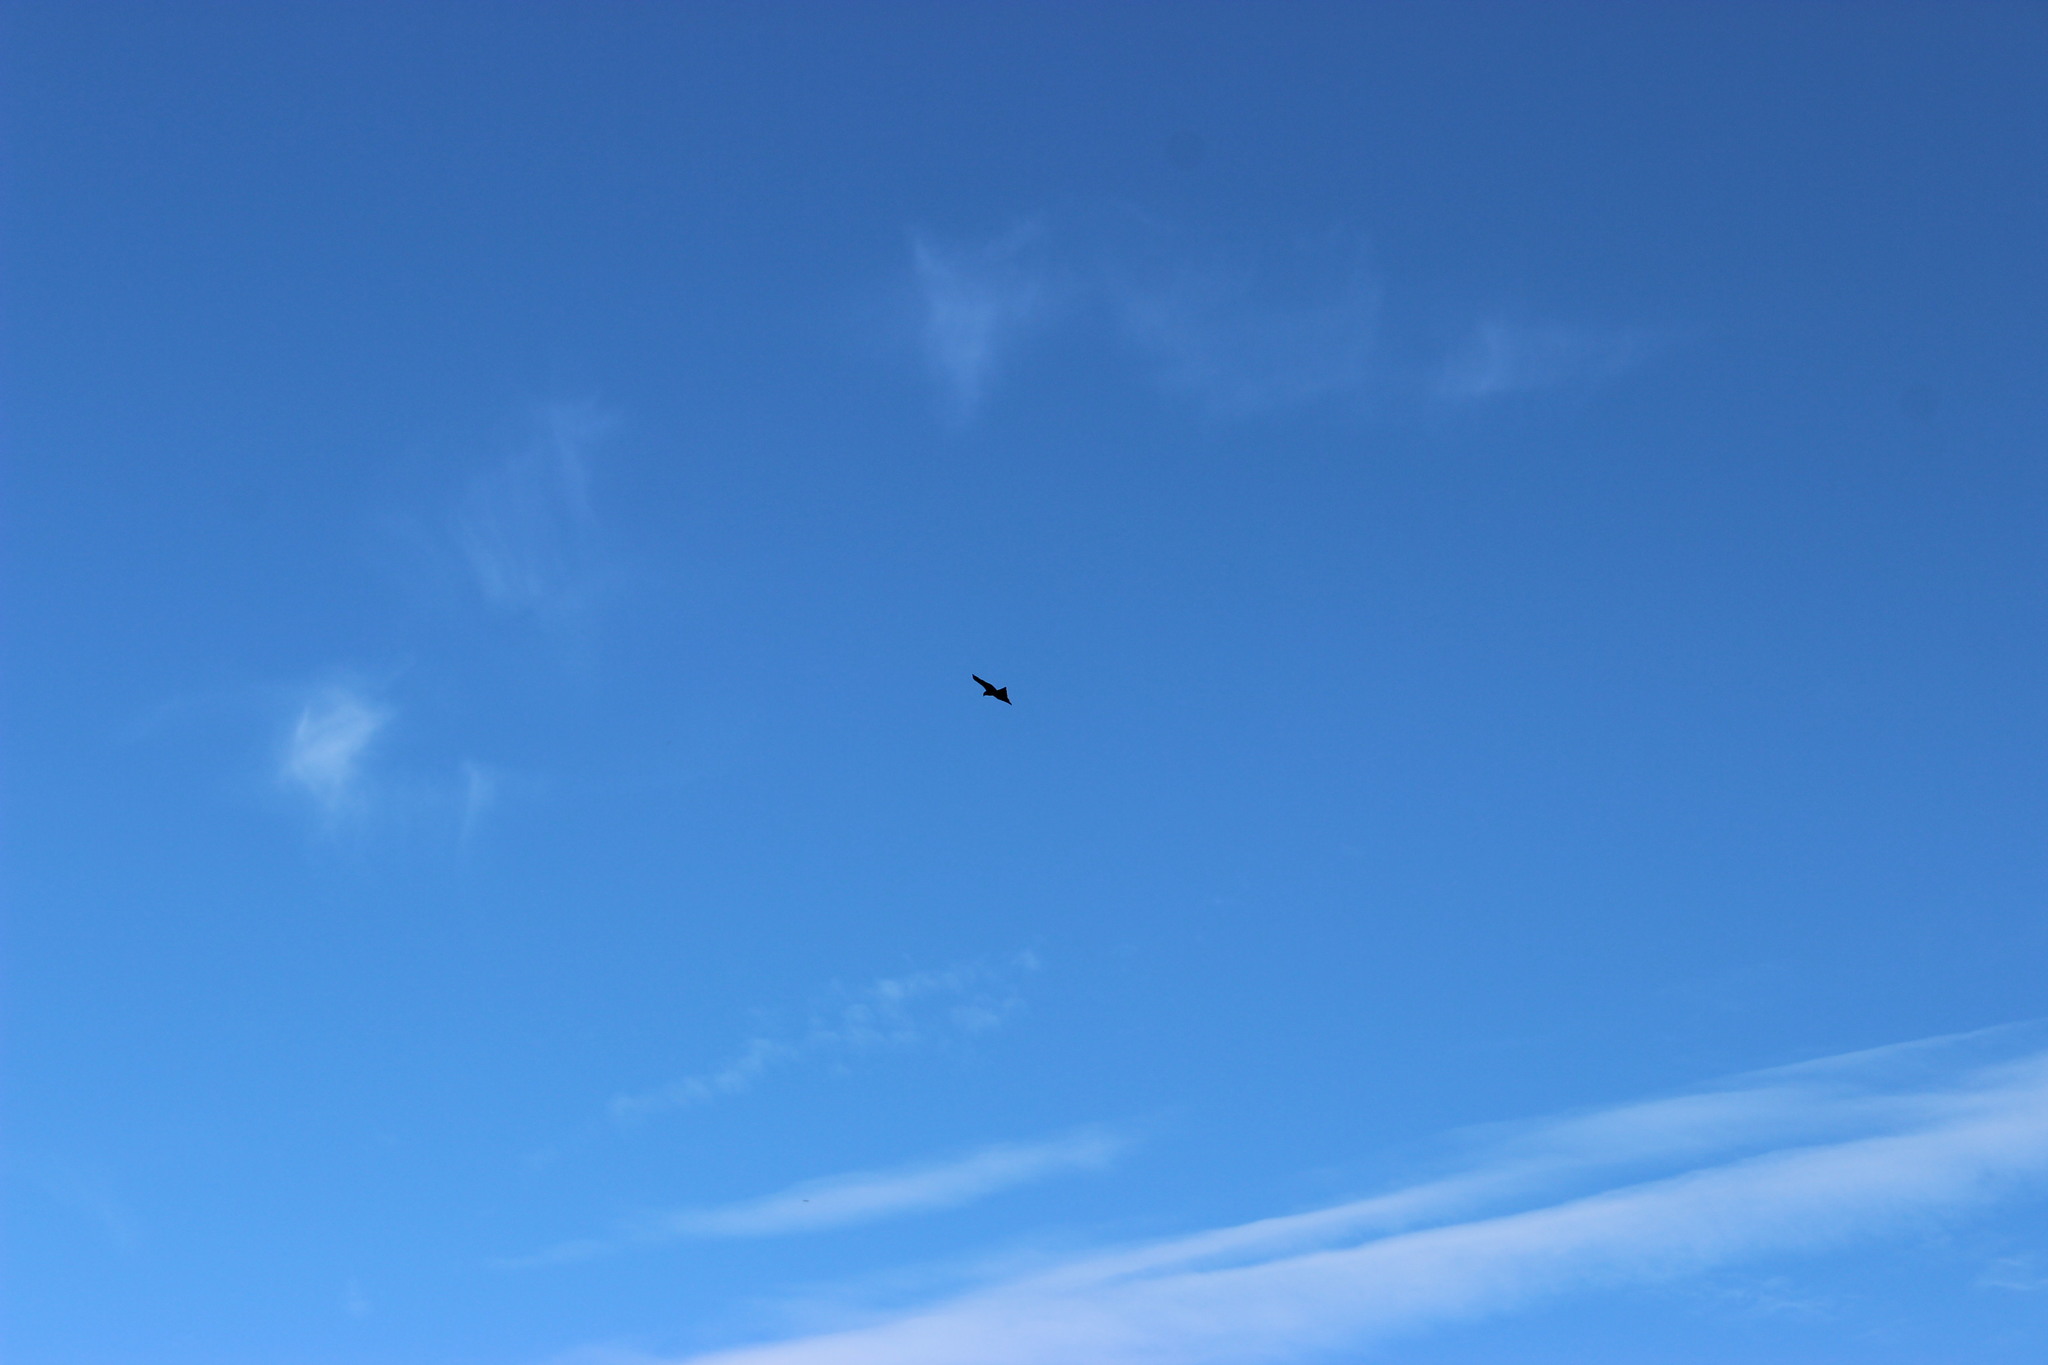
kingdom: Animalia
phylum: Chordata
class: Aves
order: Accipitriformes
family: Accipitridae
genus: Milvus
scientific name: Milvus migrans
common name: Black kite
